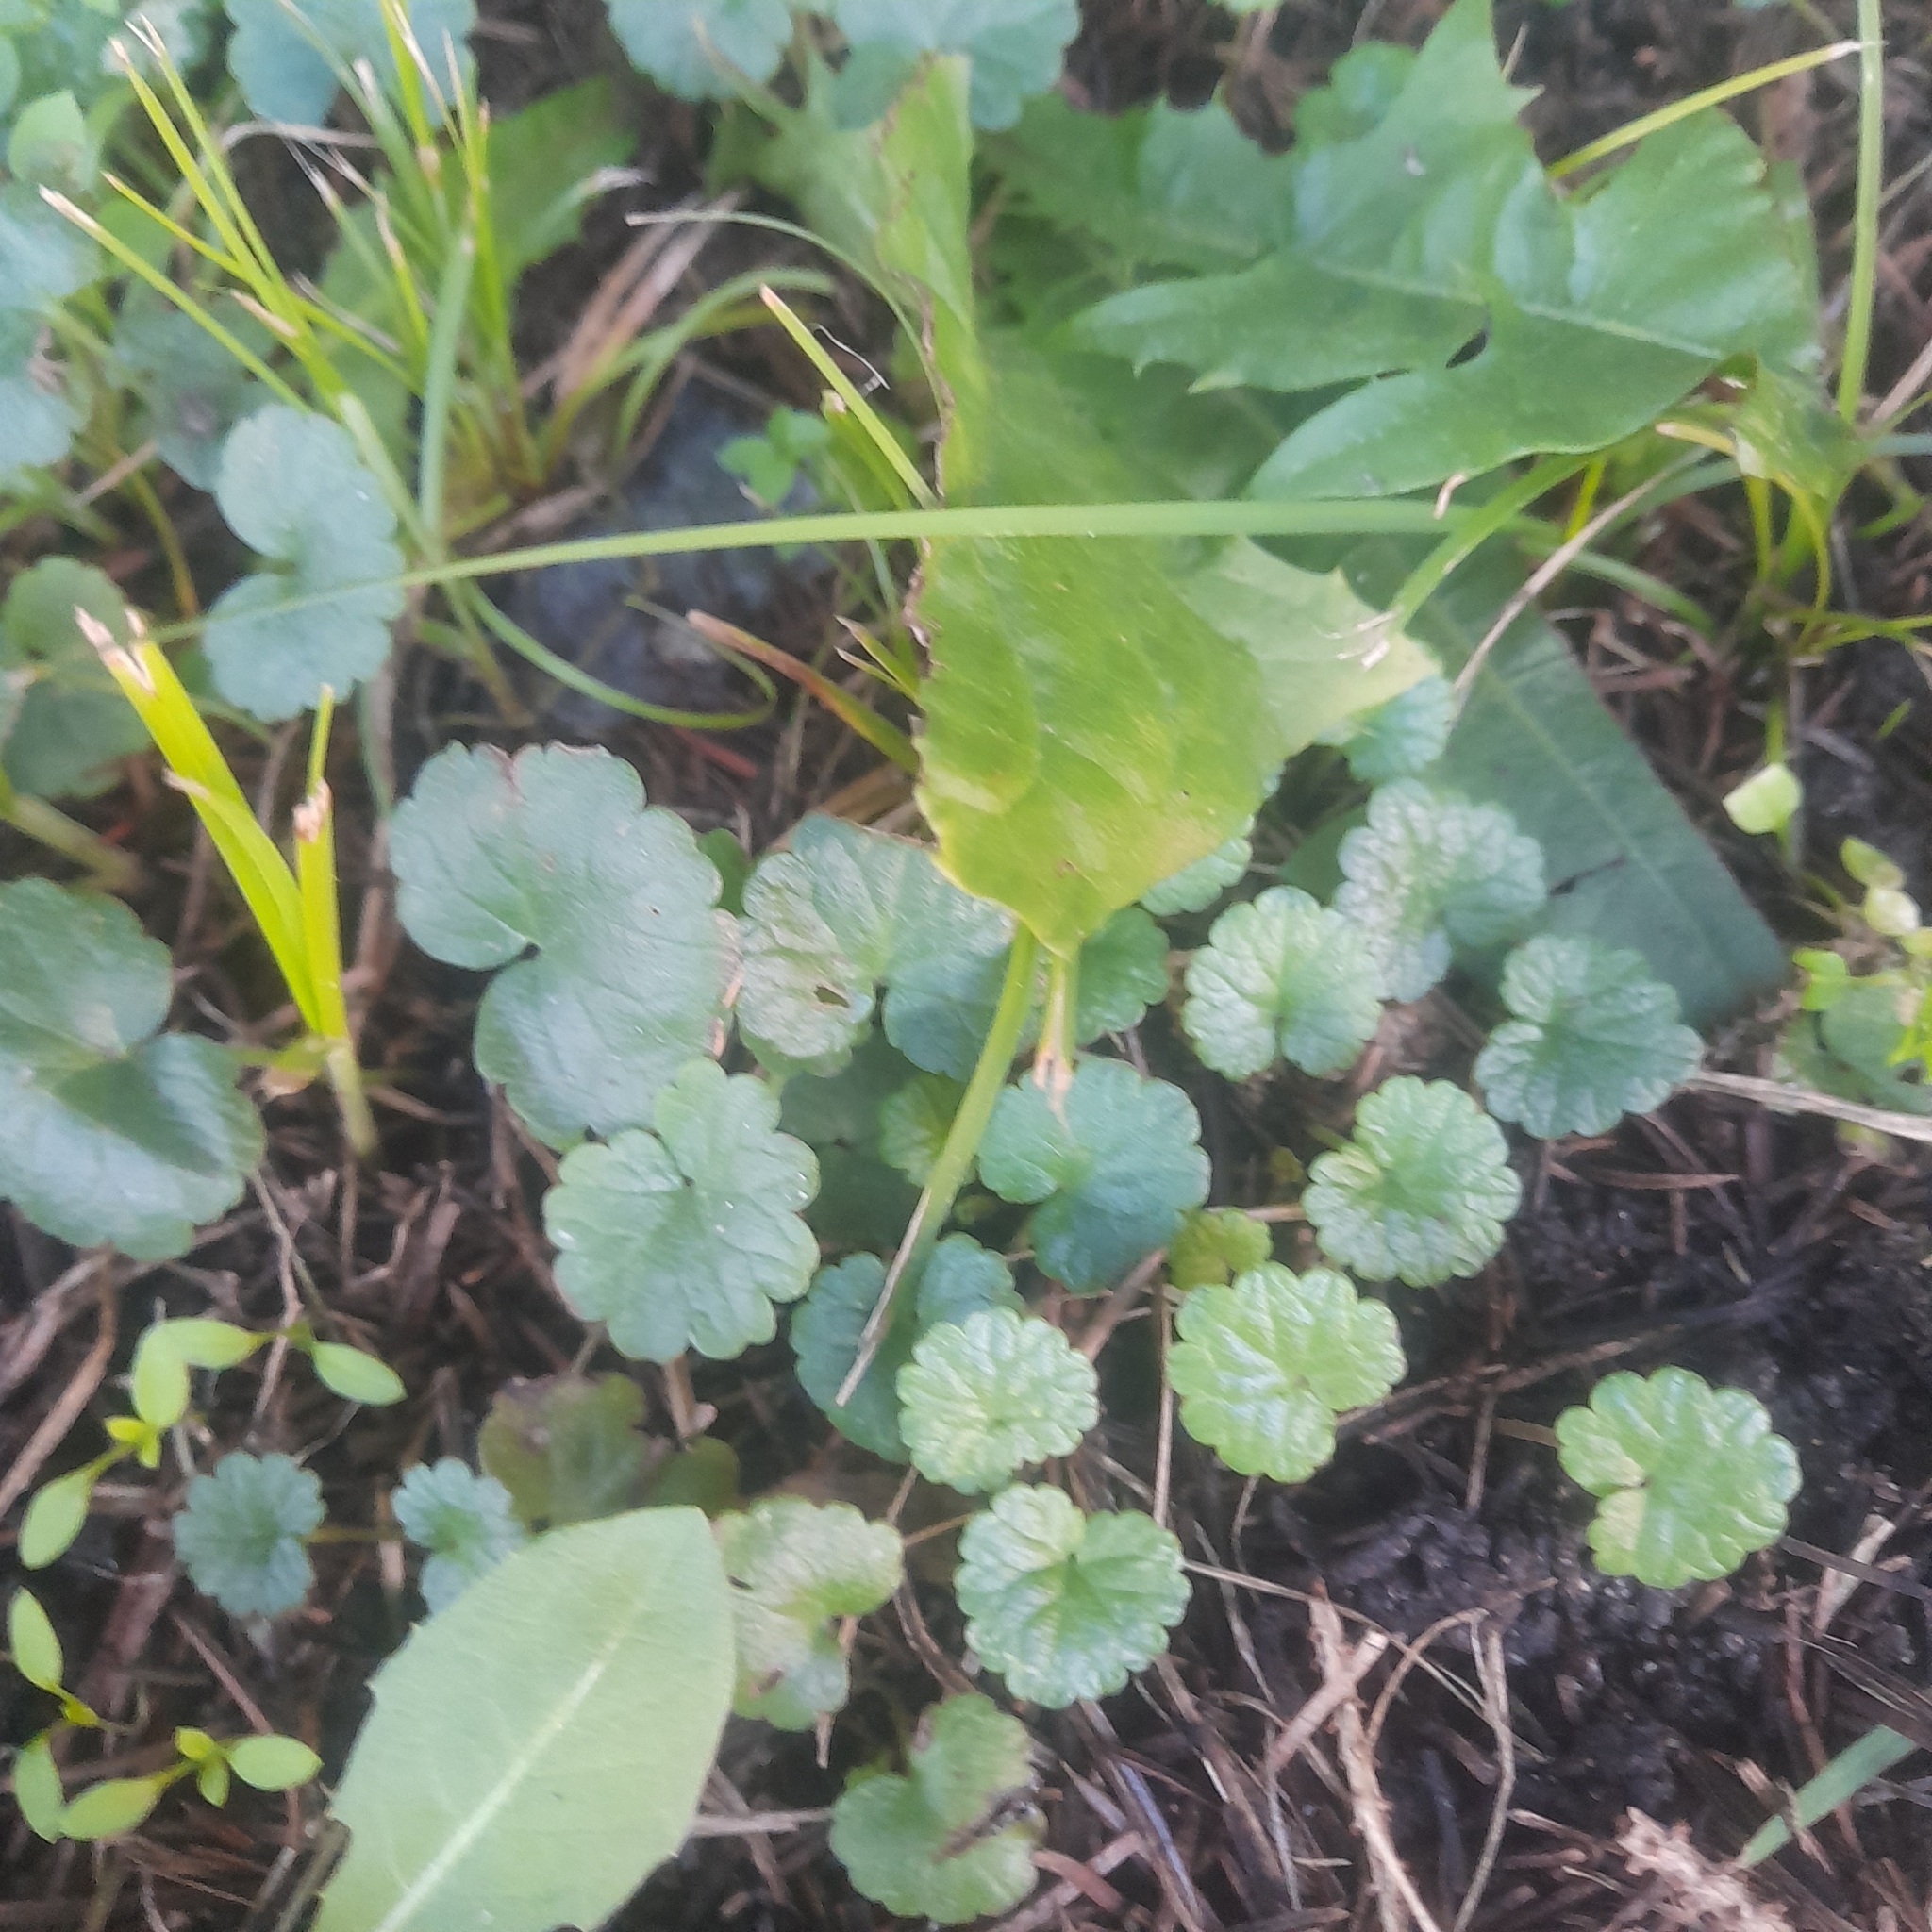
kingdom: Plantae
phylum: Tracheophyta
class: Magnoliopsida
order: Lamiales
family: Lamiaceae
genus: Glechoma
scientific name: Glechoma hederacea
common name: Ground ivy
